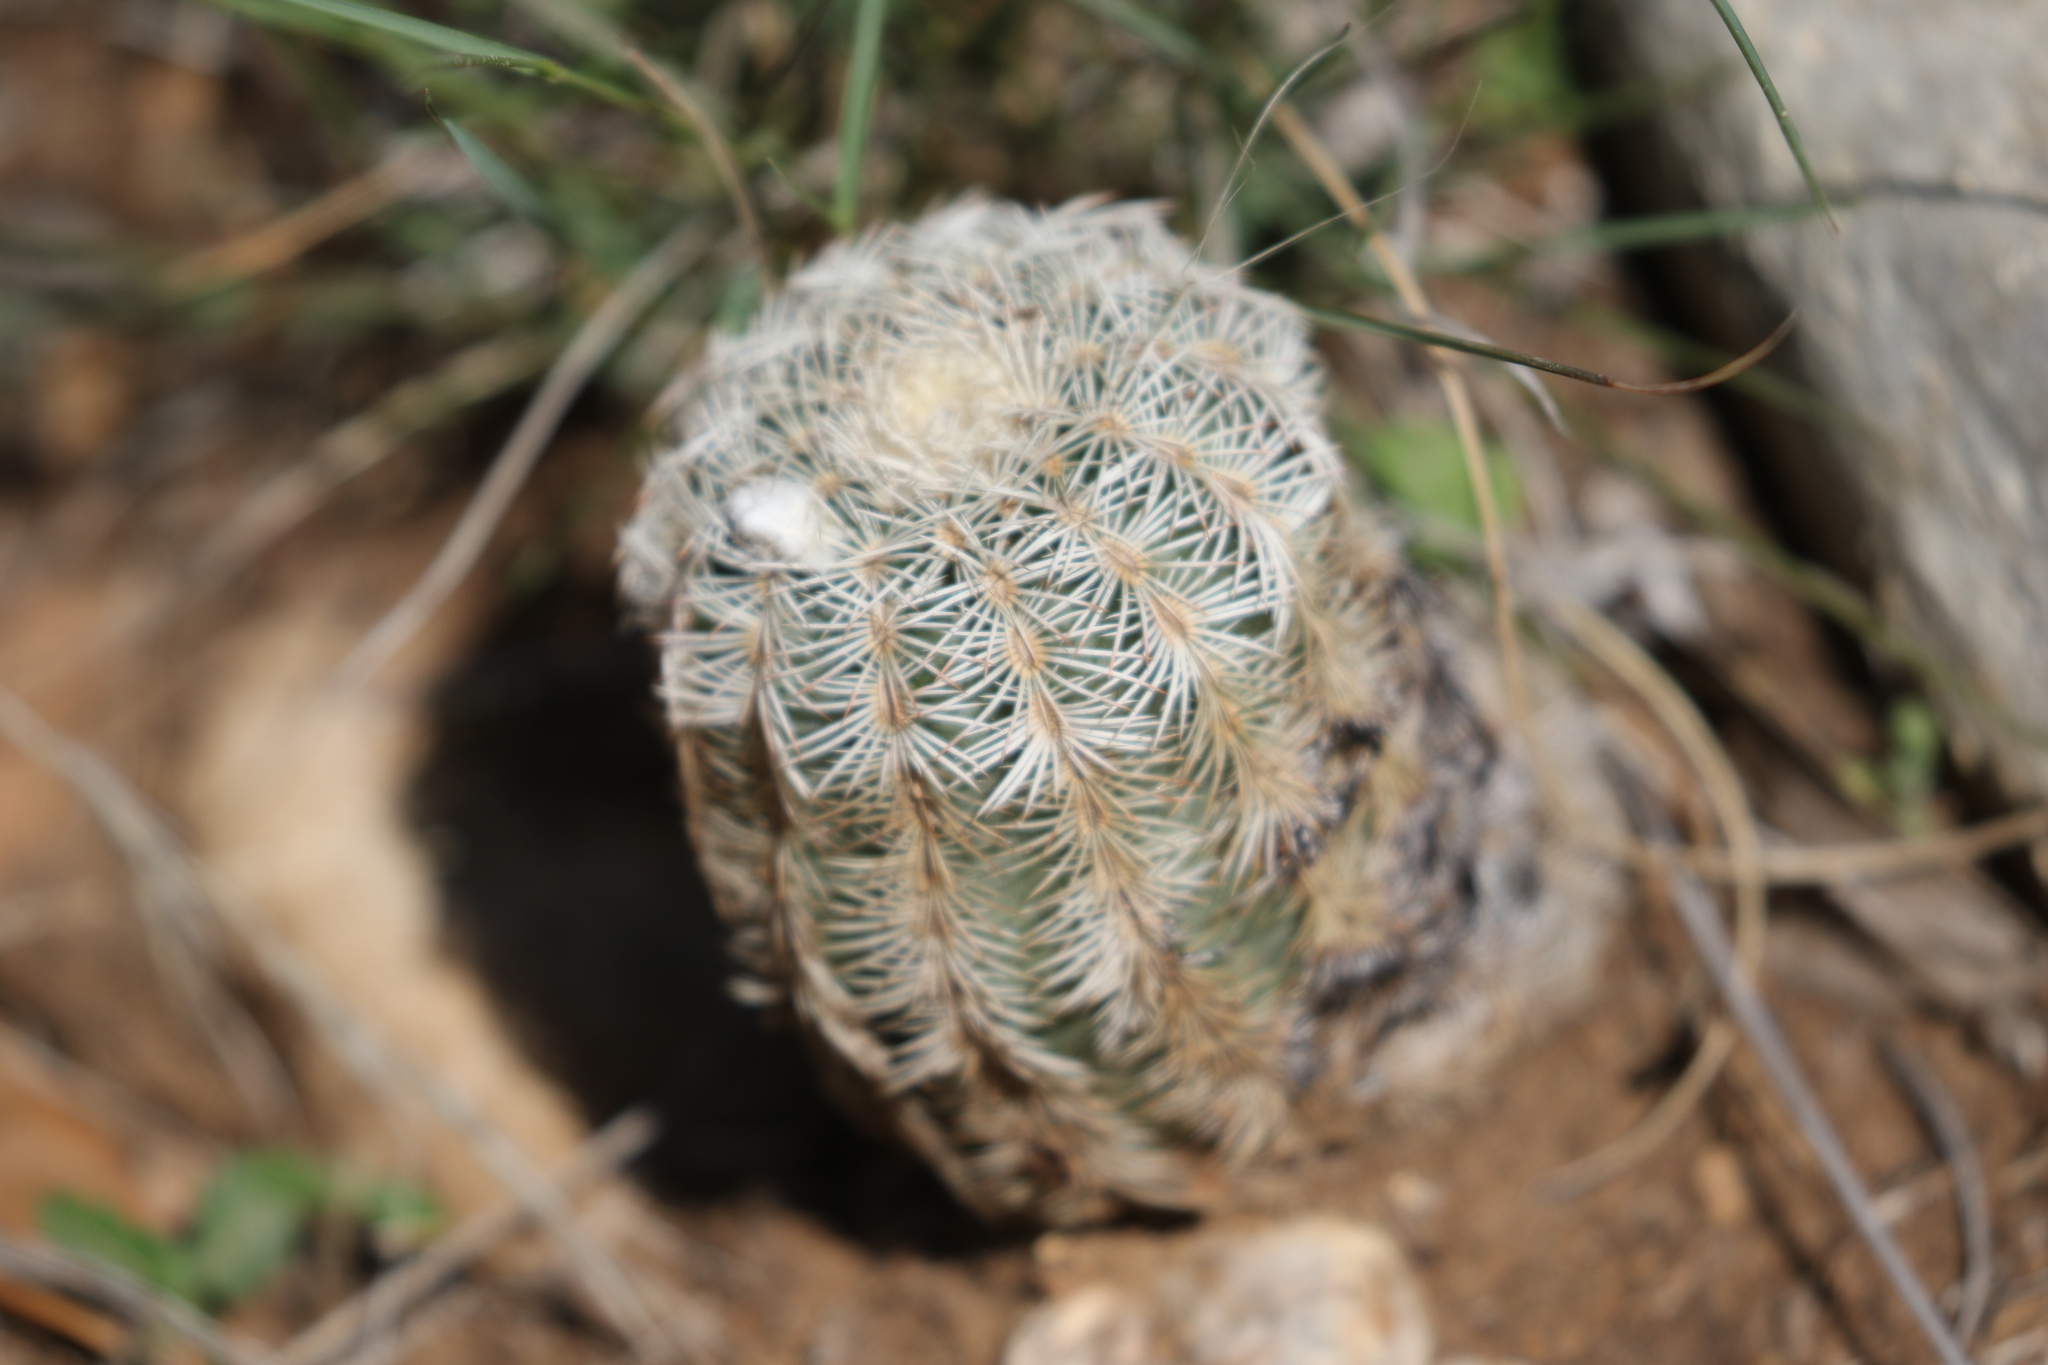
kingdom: Plantae
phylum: Tracheophyta
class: Magnoliopsida
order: Caryophyllales
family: Cactaceae
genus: Echinocereus
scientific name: Echinocereus reichenbachii
